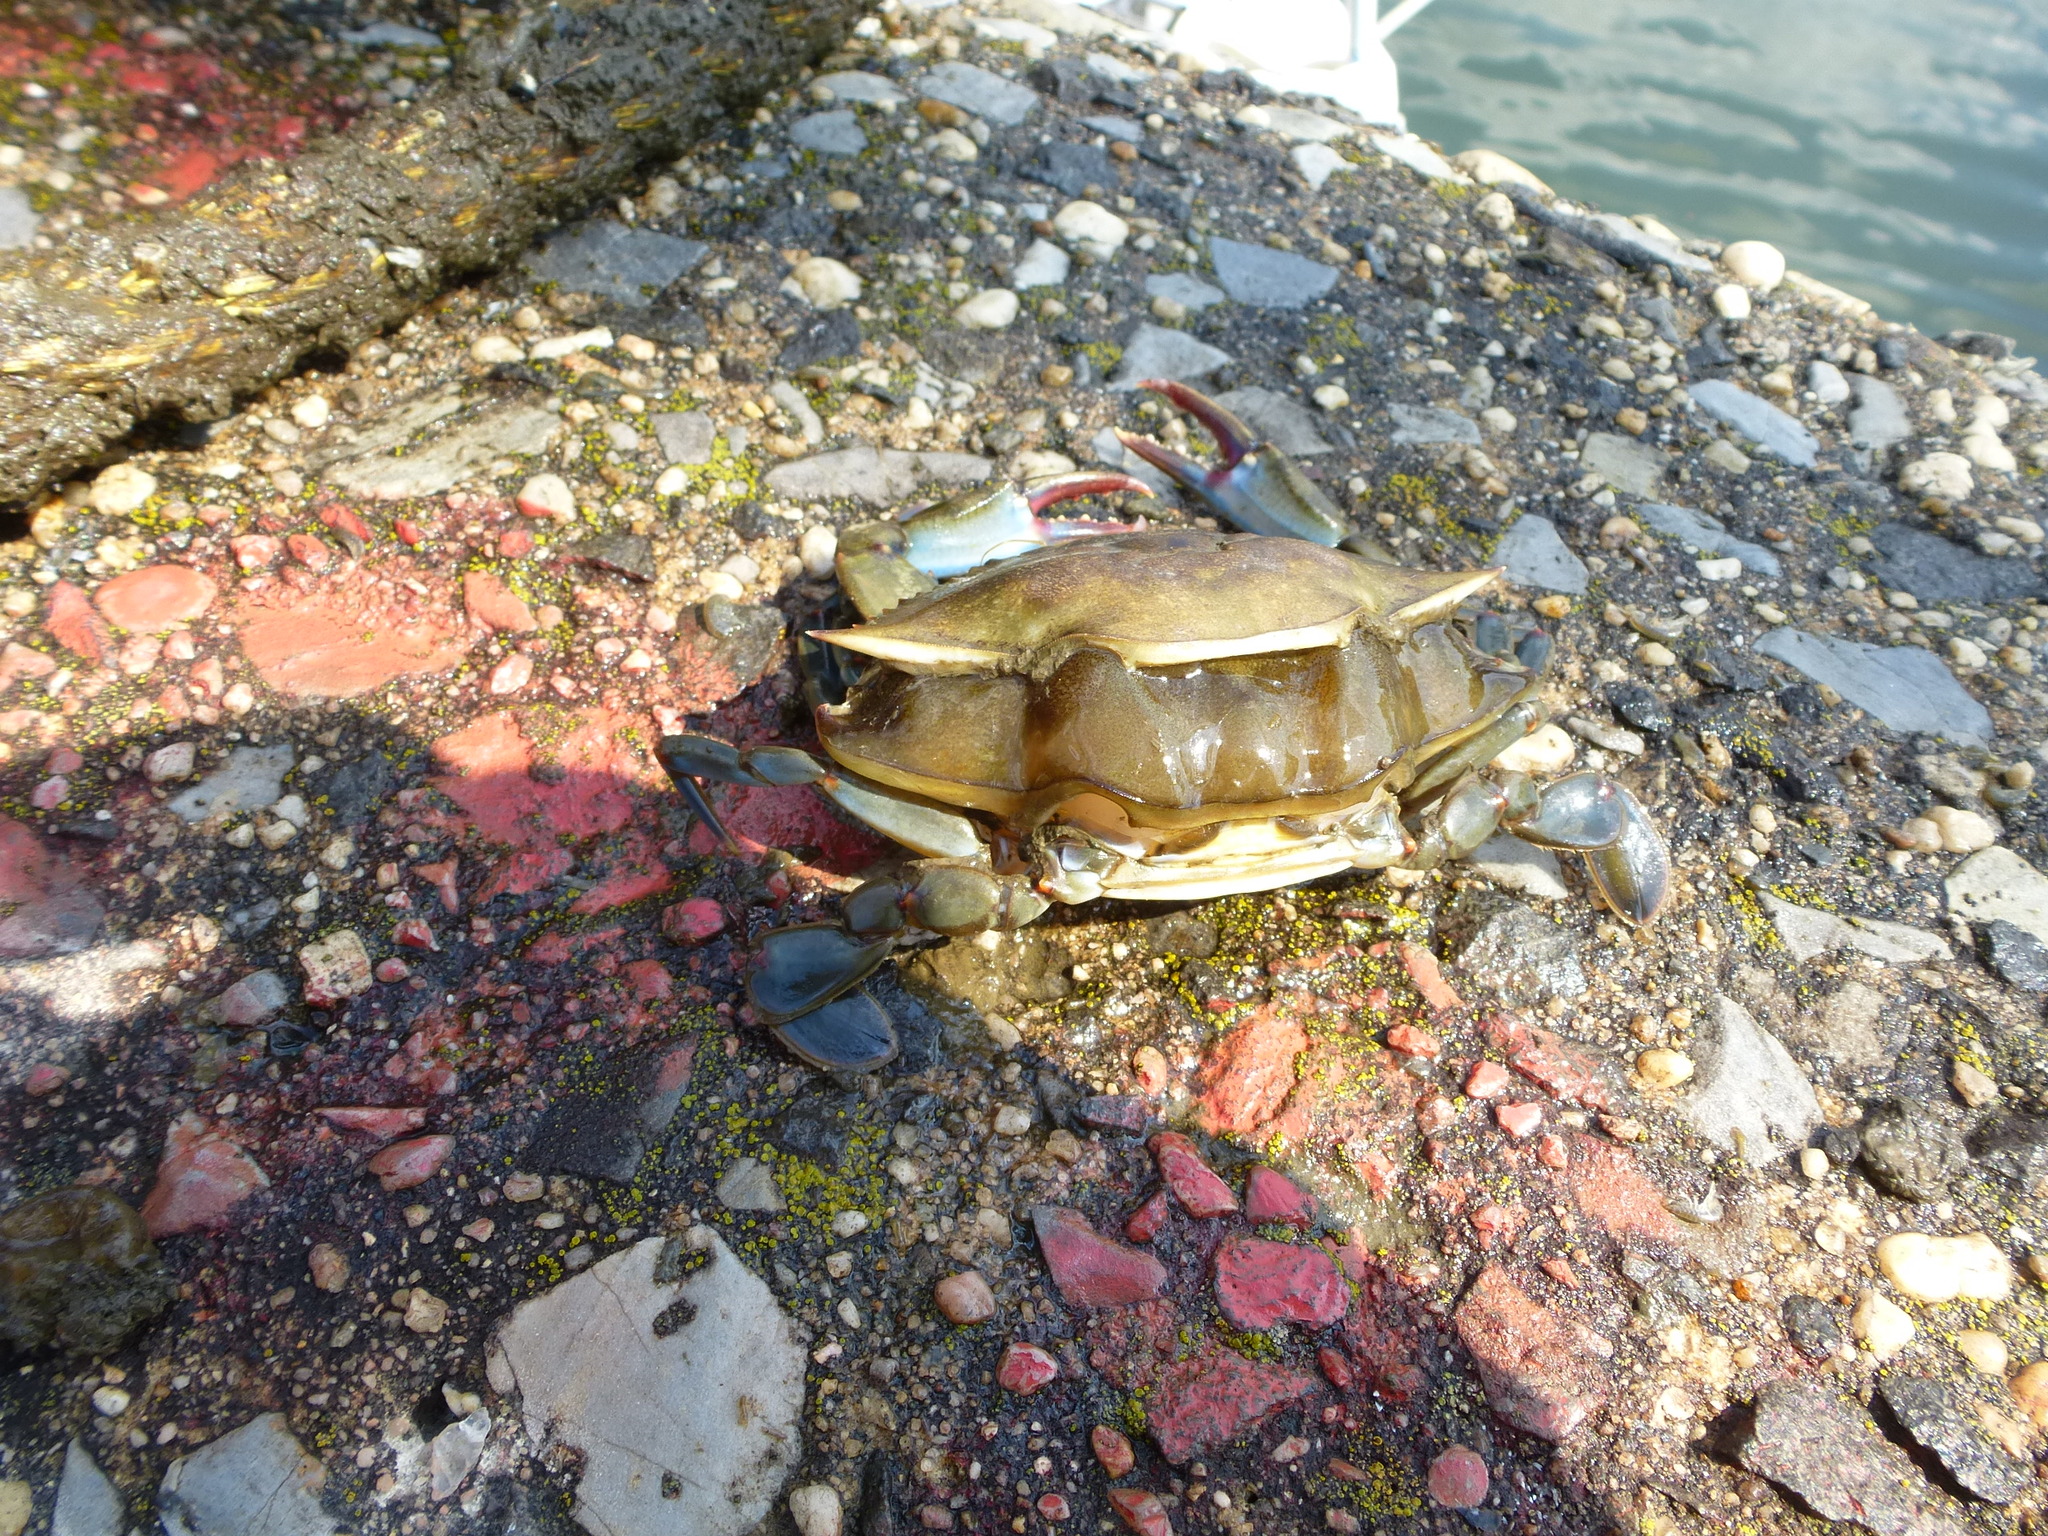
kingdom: Animalia
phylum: Arthropoda
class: Malacostraca
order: Decapoda
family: Portunidae
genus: Callinectes
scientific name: Callinectes sapidus
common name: Blue crab
